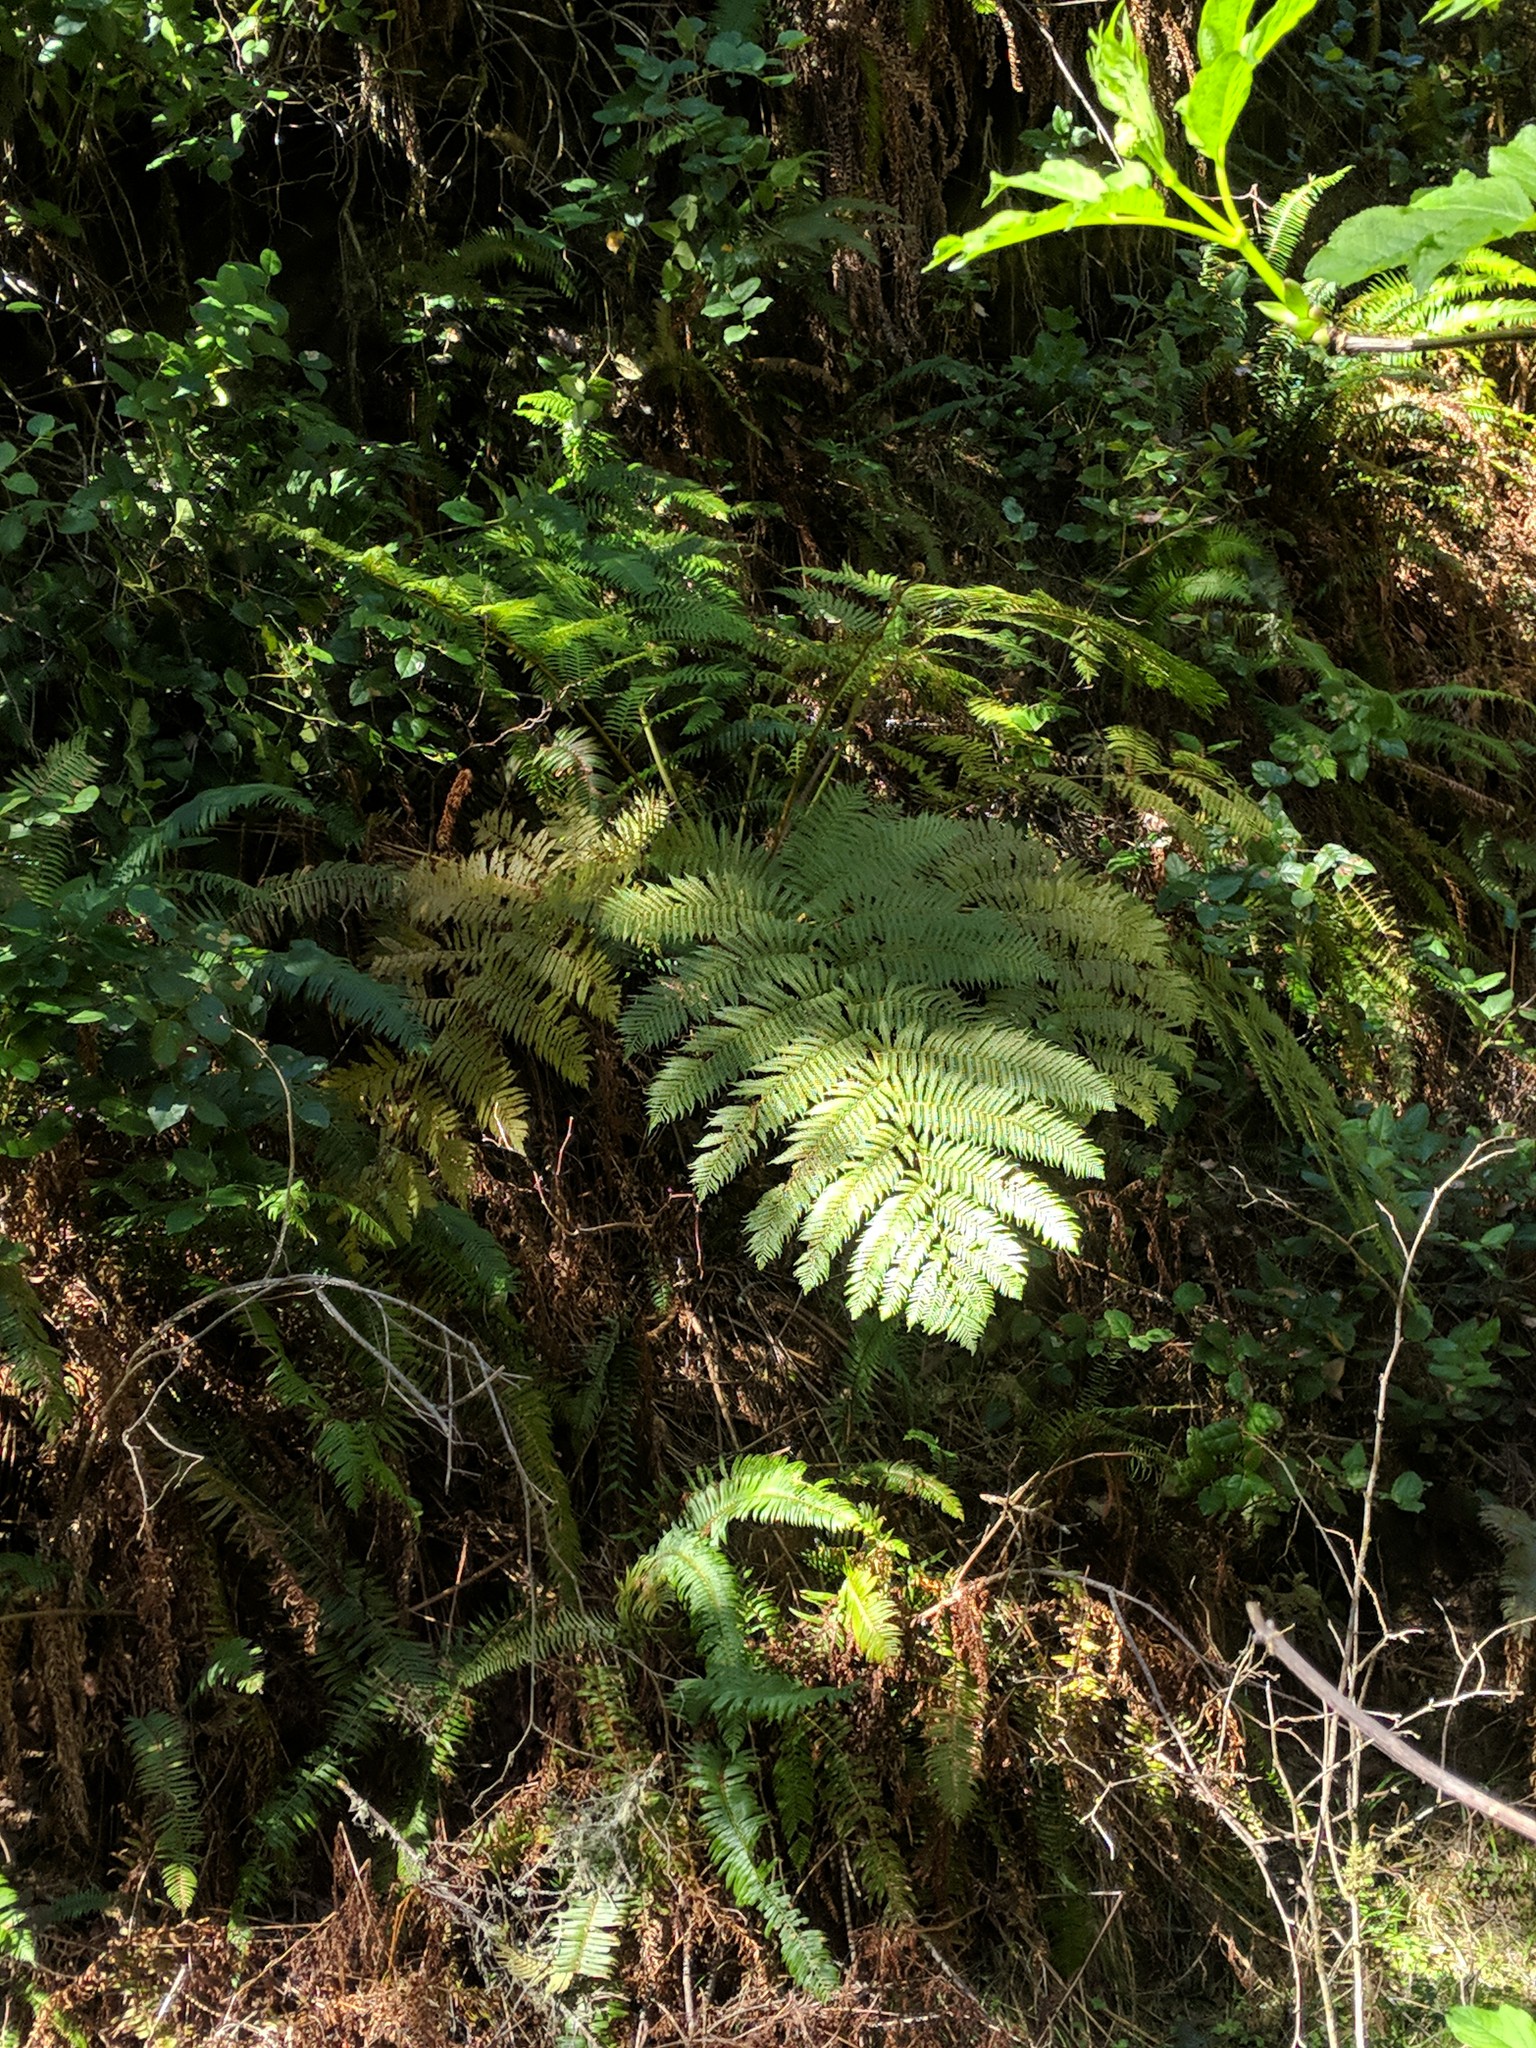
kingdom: Plantae
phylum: Tracheophyta
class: Polypodiopsida
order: Cyatheales
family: Cyatheaceae
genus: Sphaeropteris
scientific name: Sphaeropteris cooperi
